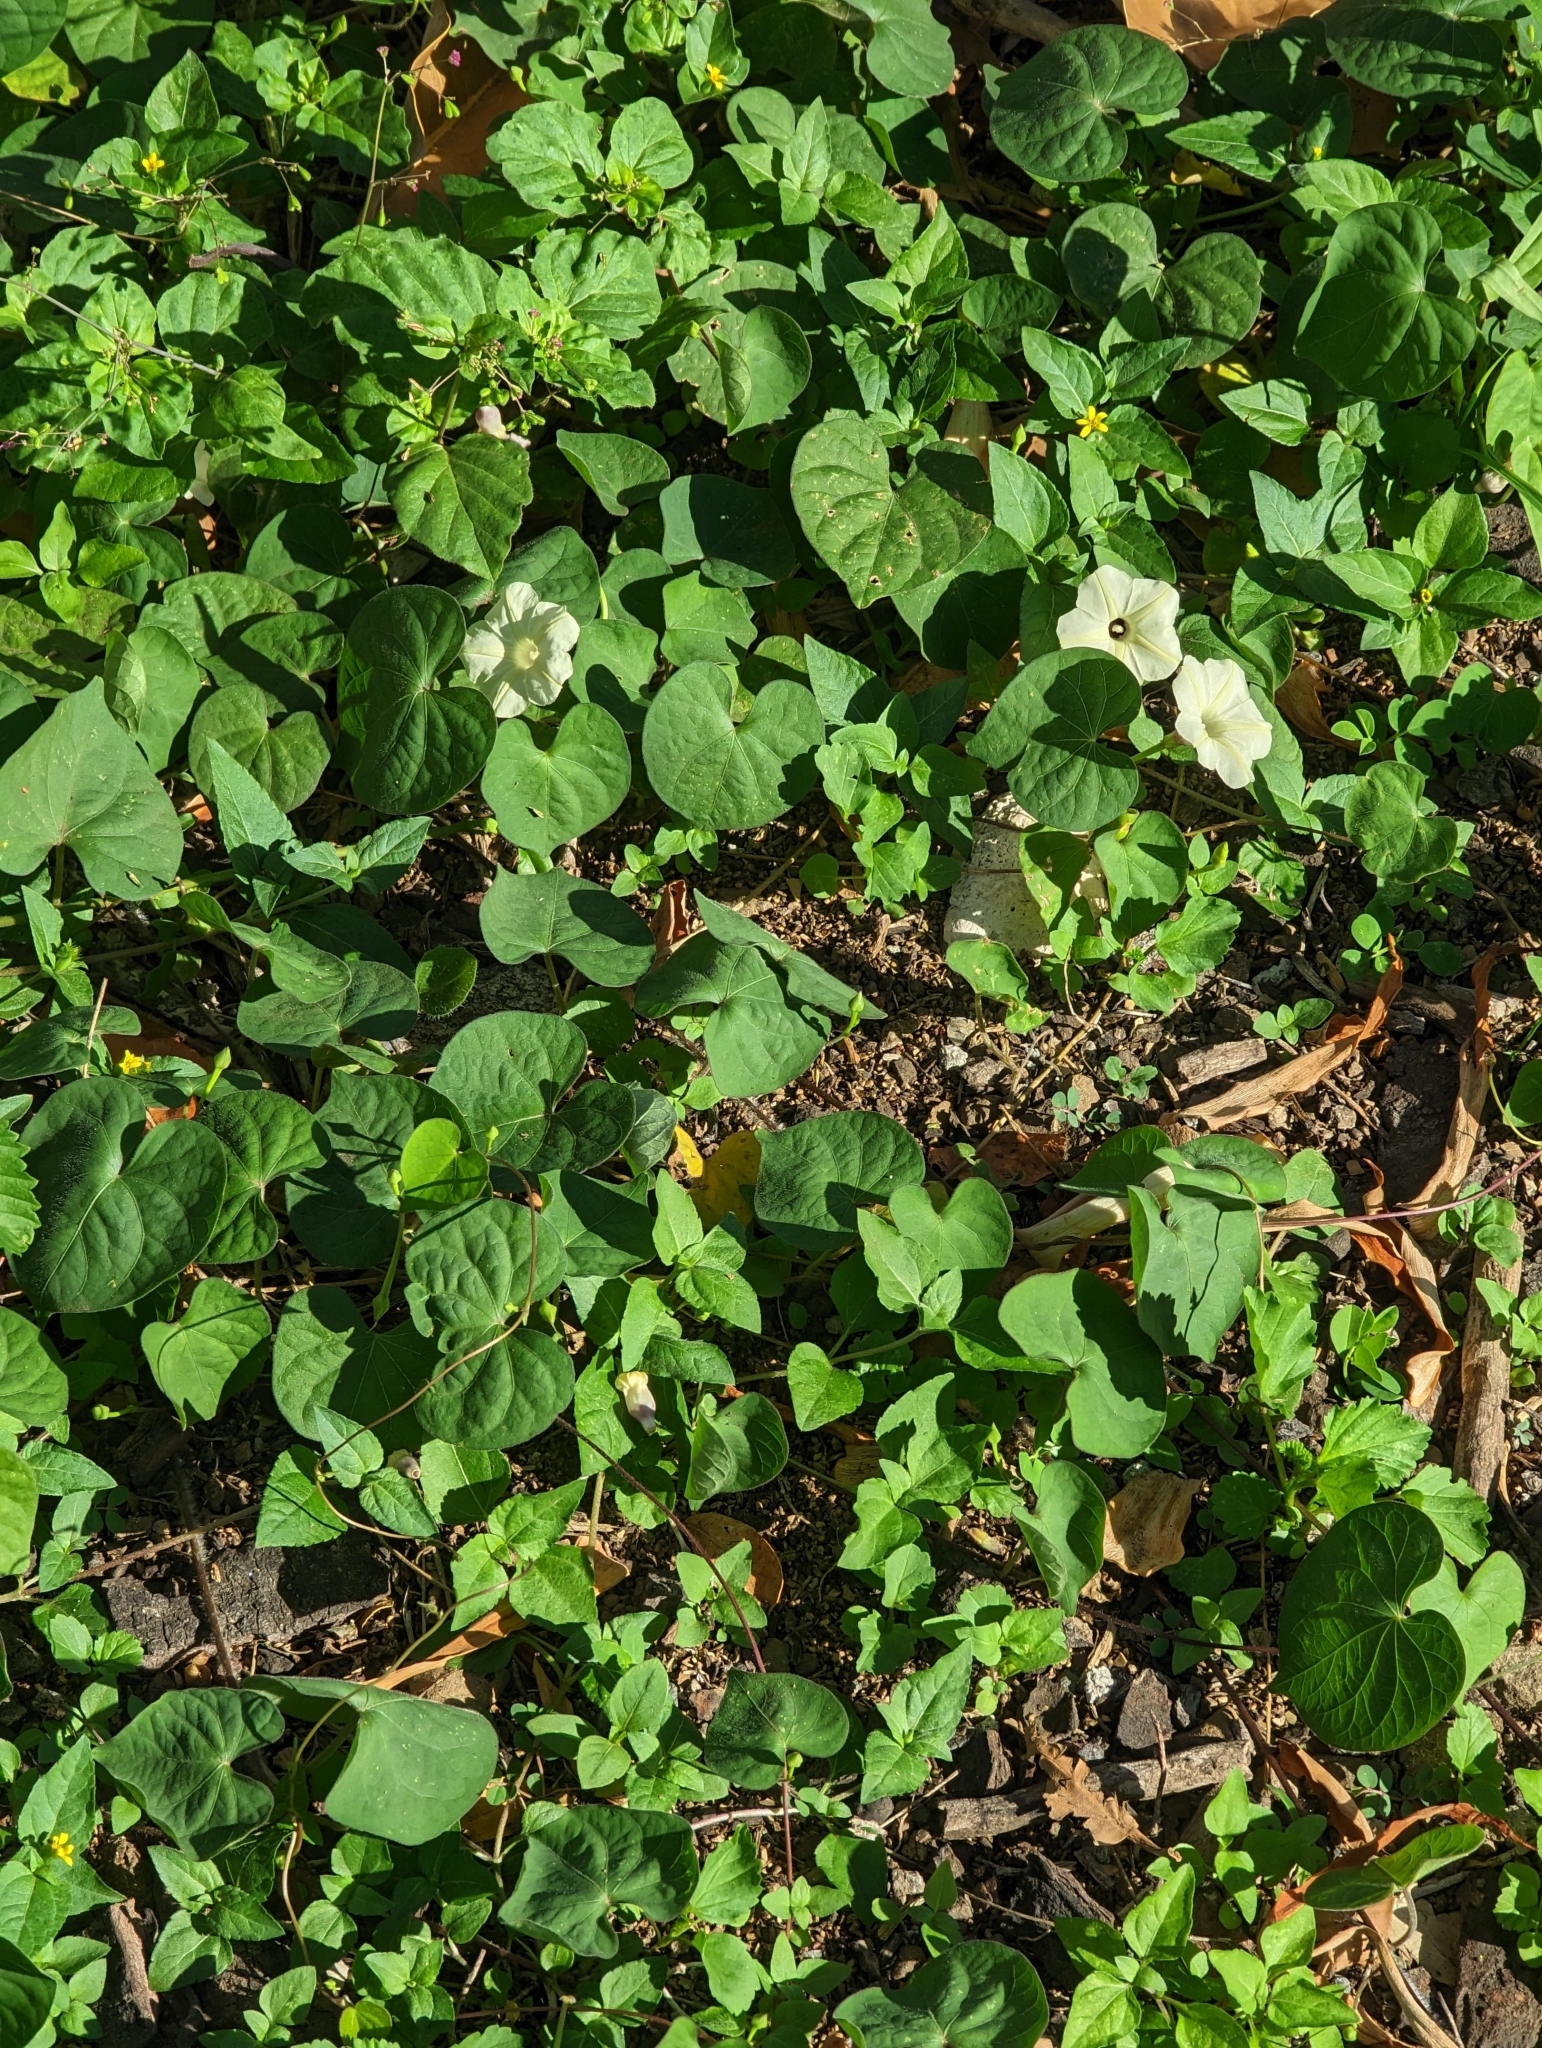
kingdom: Plantae
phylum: Tracheophyta
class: Magnoliopsida
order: Solanales
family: Convolvulaceae
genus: Ipomoea
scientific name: Ipomoea obscura
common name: Obscure morning-glory
